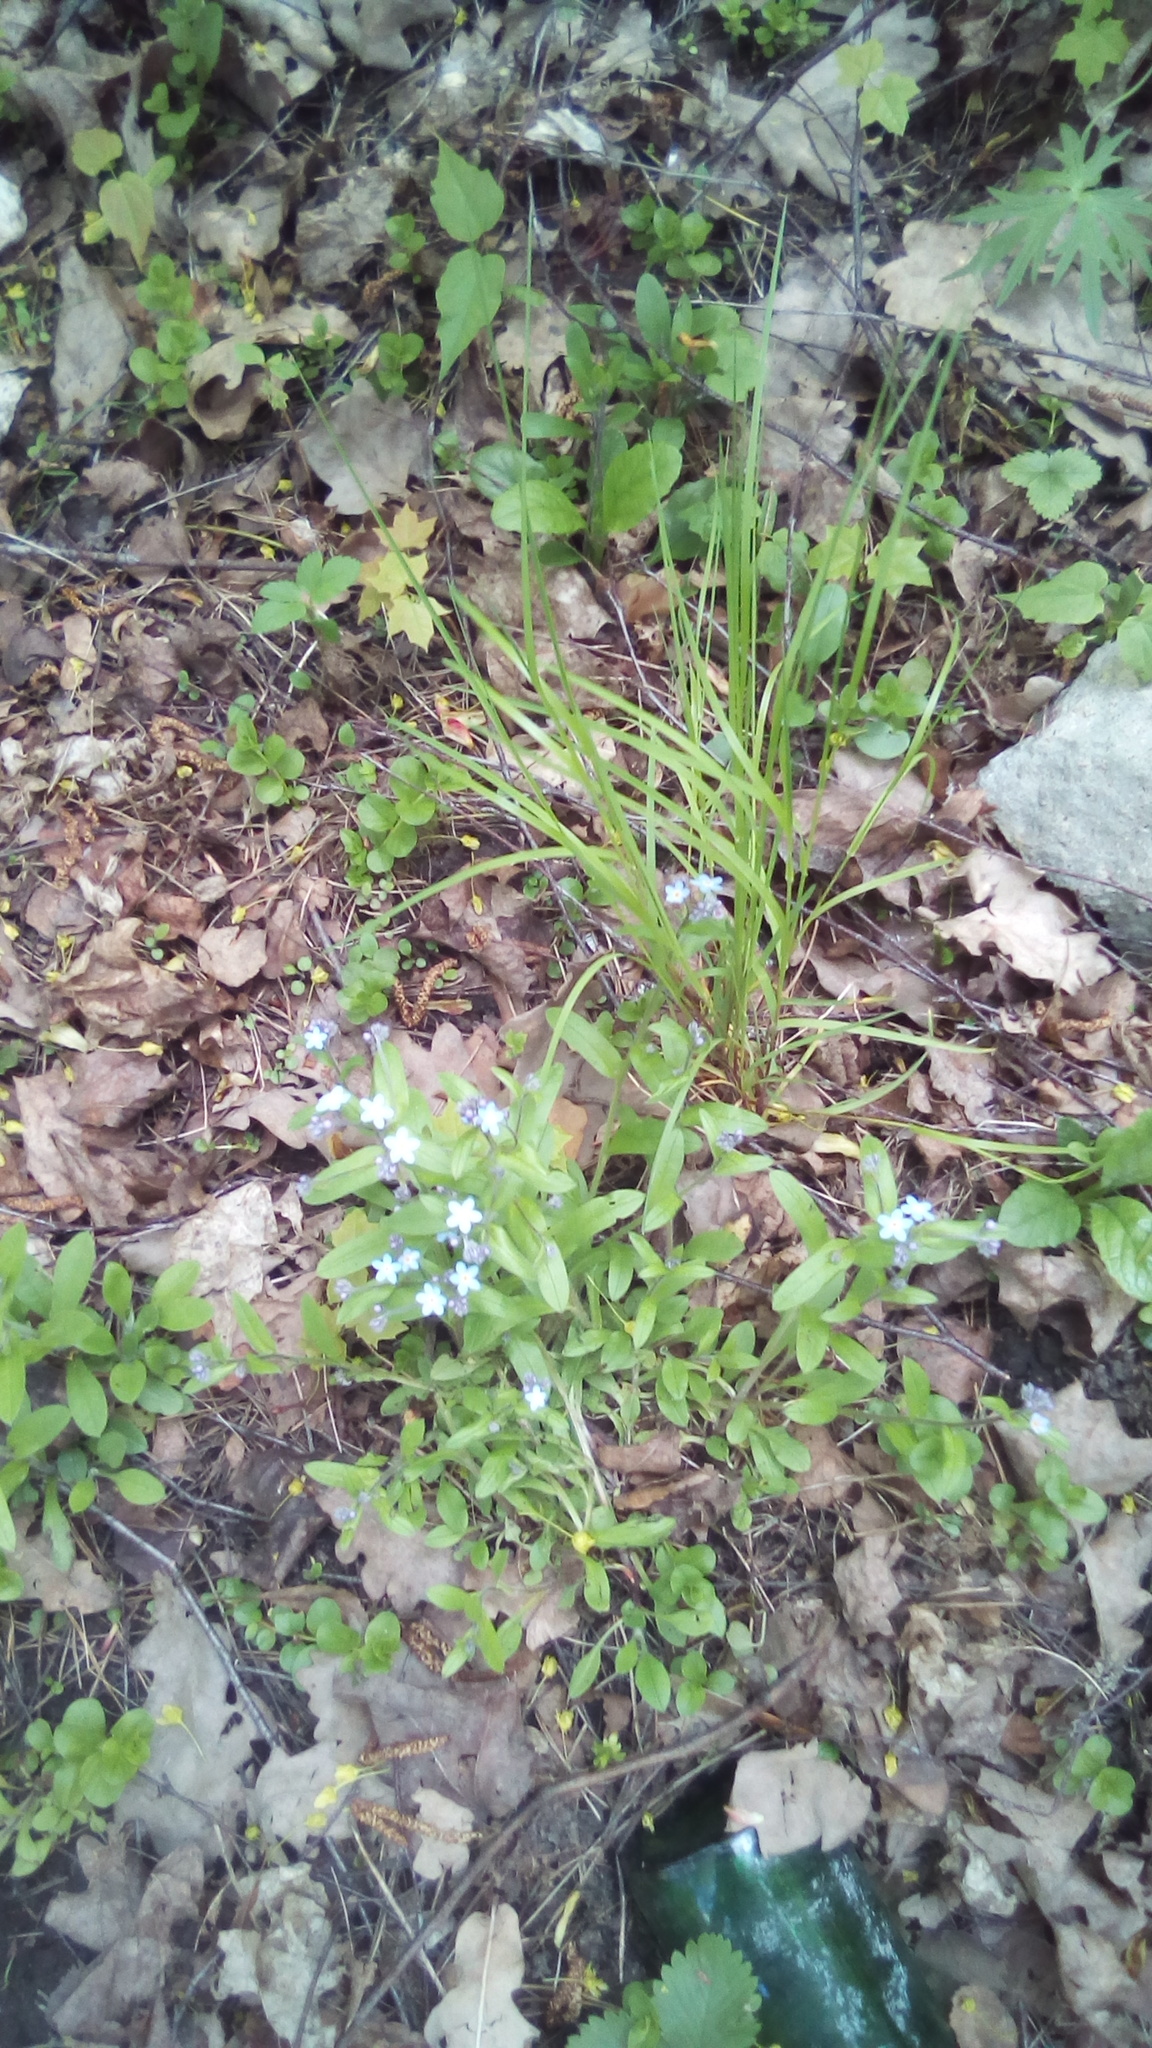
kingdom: Plantae
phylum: Tracheophyta
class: Magnoliopsida
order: Boraginales
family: Boraginaceae
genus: Myosotis
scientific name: Myosotis sylvatica
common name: Wood forget-me-not
